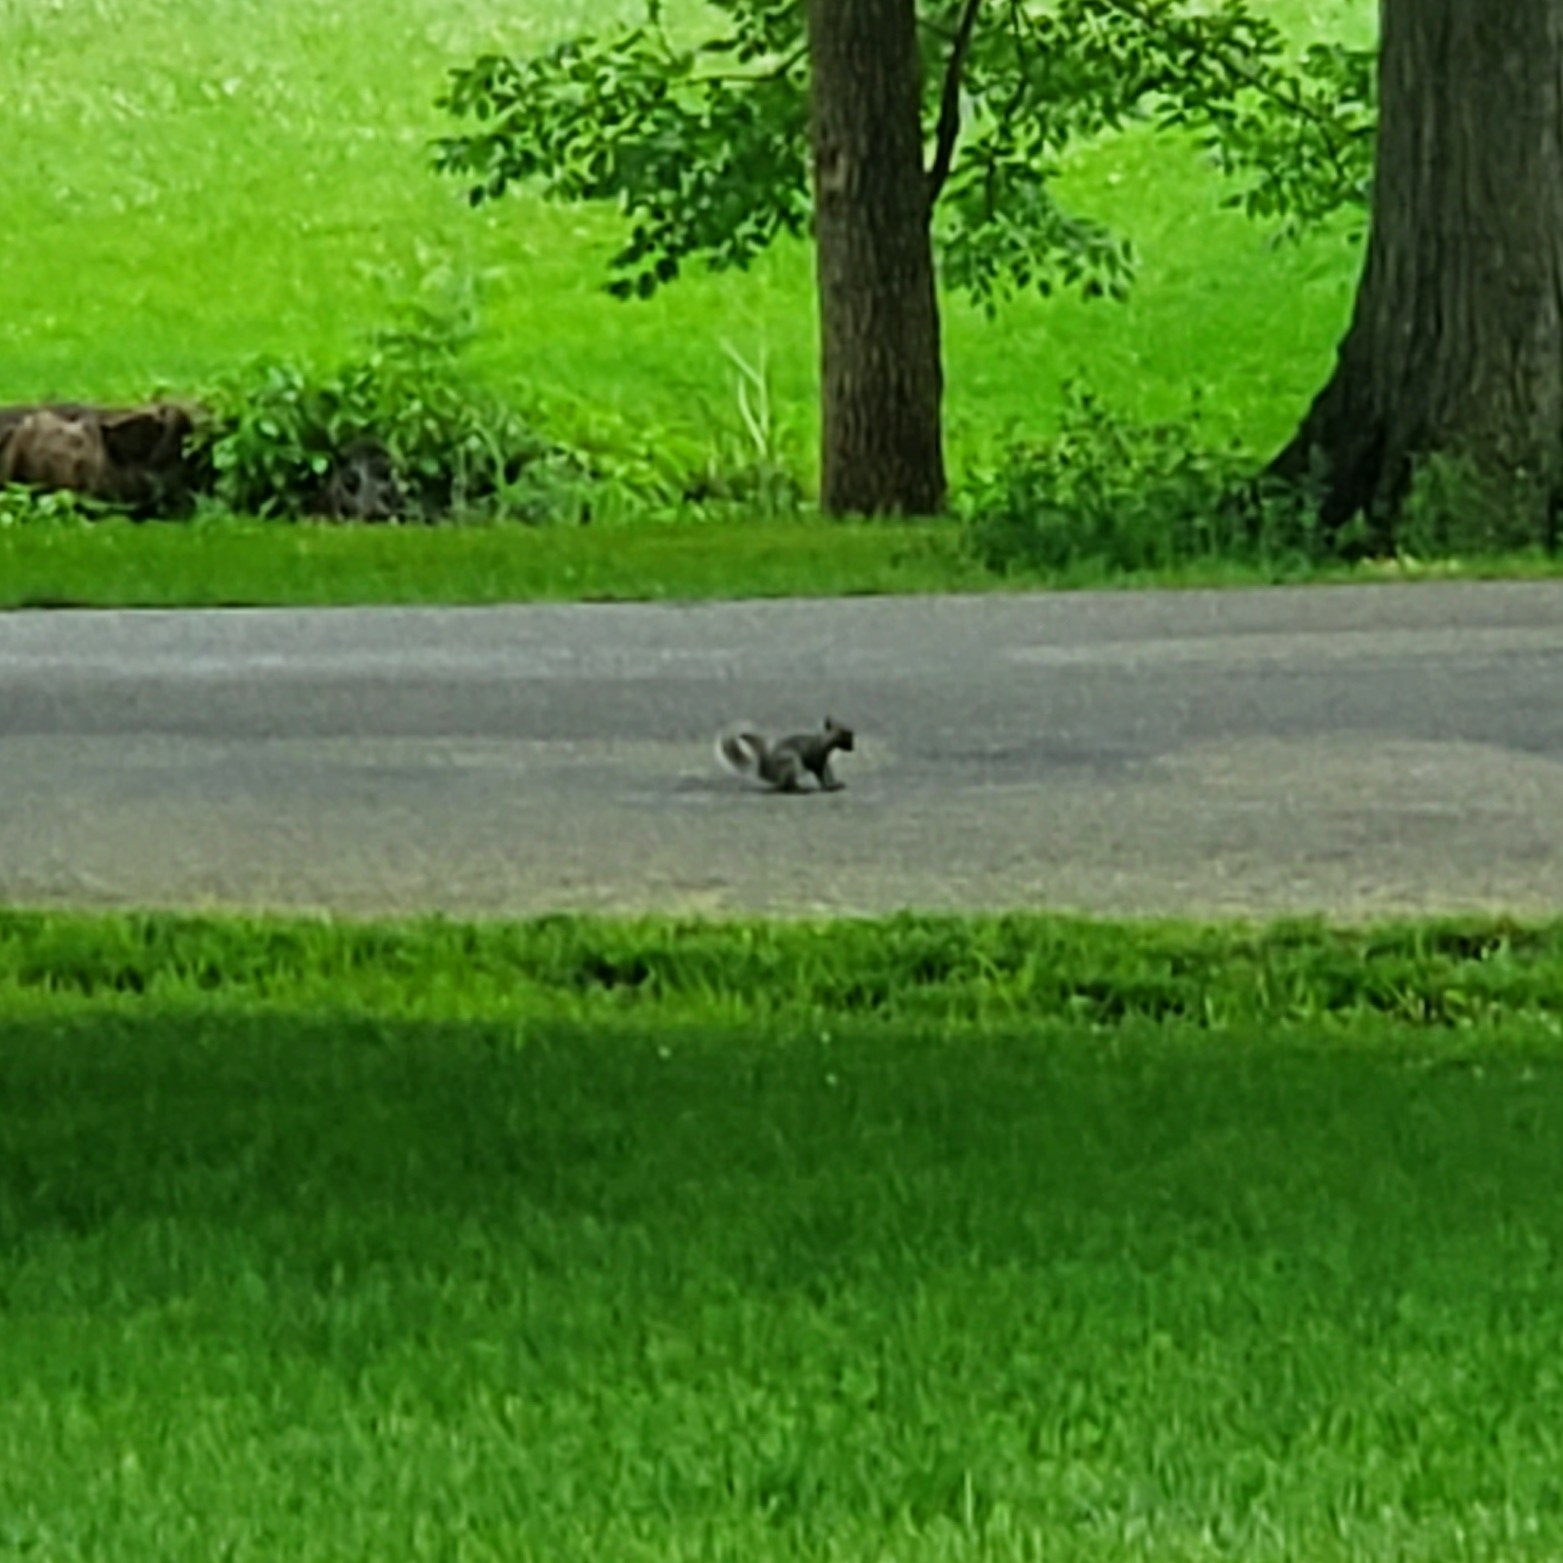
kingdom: Animalia
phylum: Chordata
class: Mammalia
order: Rodentia
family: Sciuridae
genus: Sciurus
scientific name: Sciurus carolinensis
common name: Eastern gray squirrel
